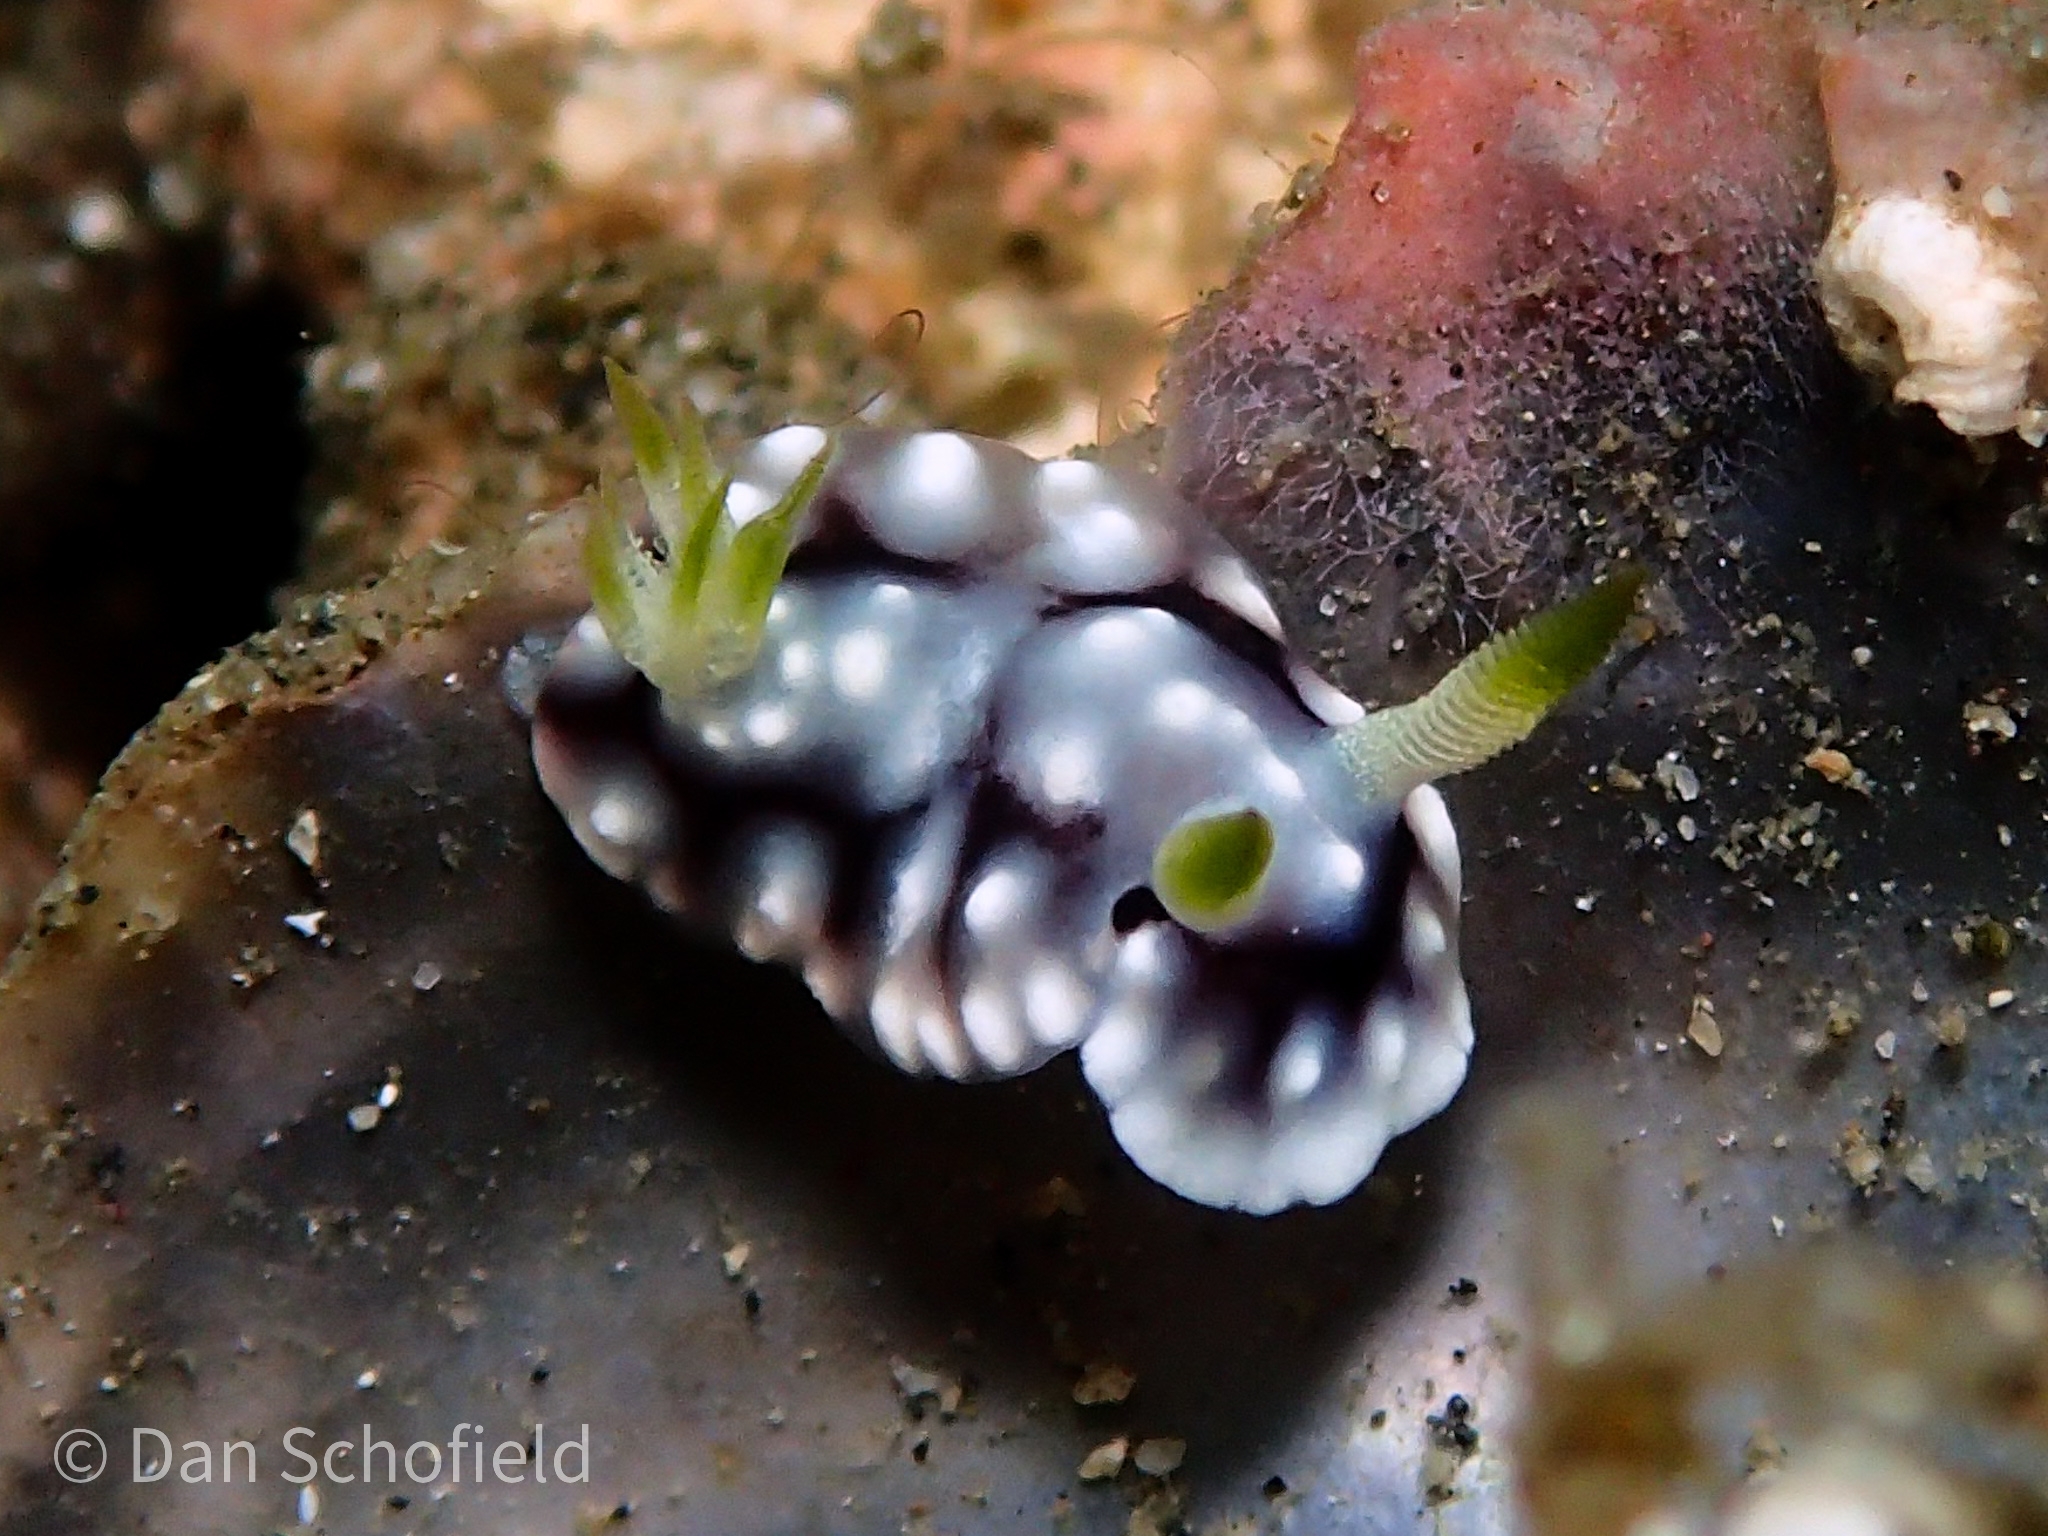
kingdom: Animalia
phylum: Mollusca
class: Gastropoda
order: Nudibranchia
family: Chromodorididae
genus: Goniobranchus
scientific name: Goniobranchus geometricus
